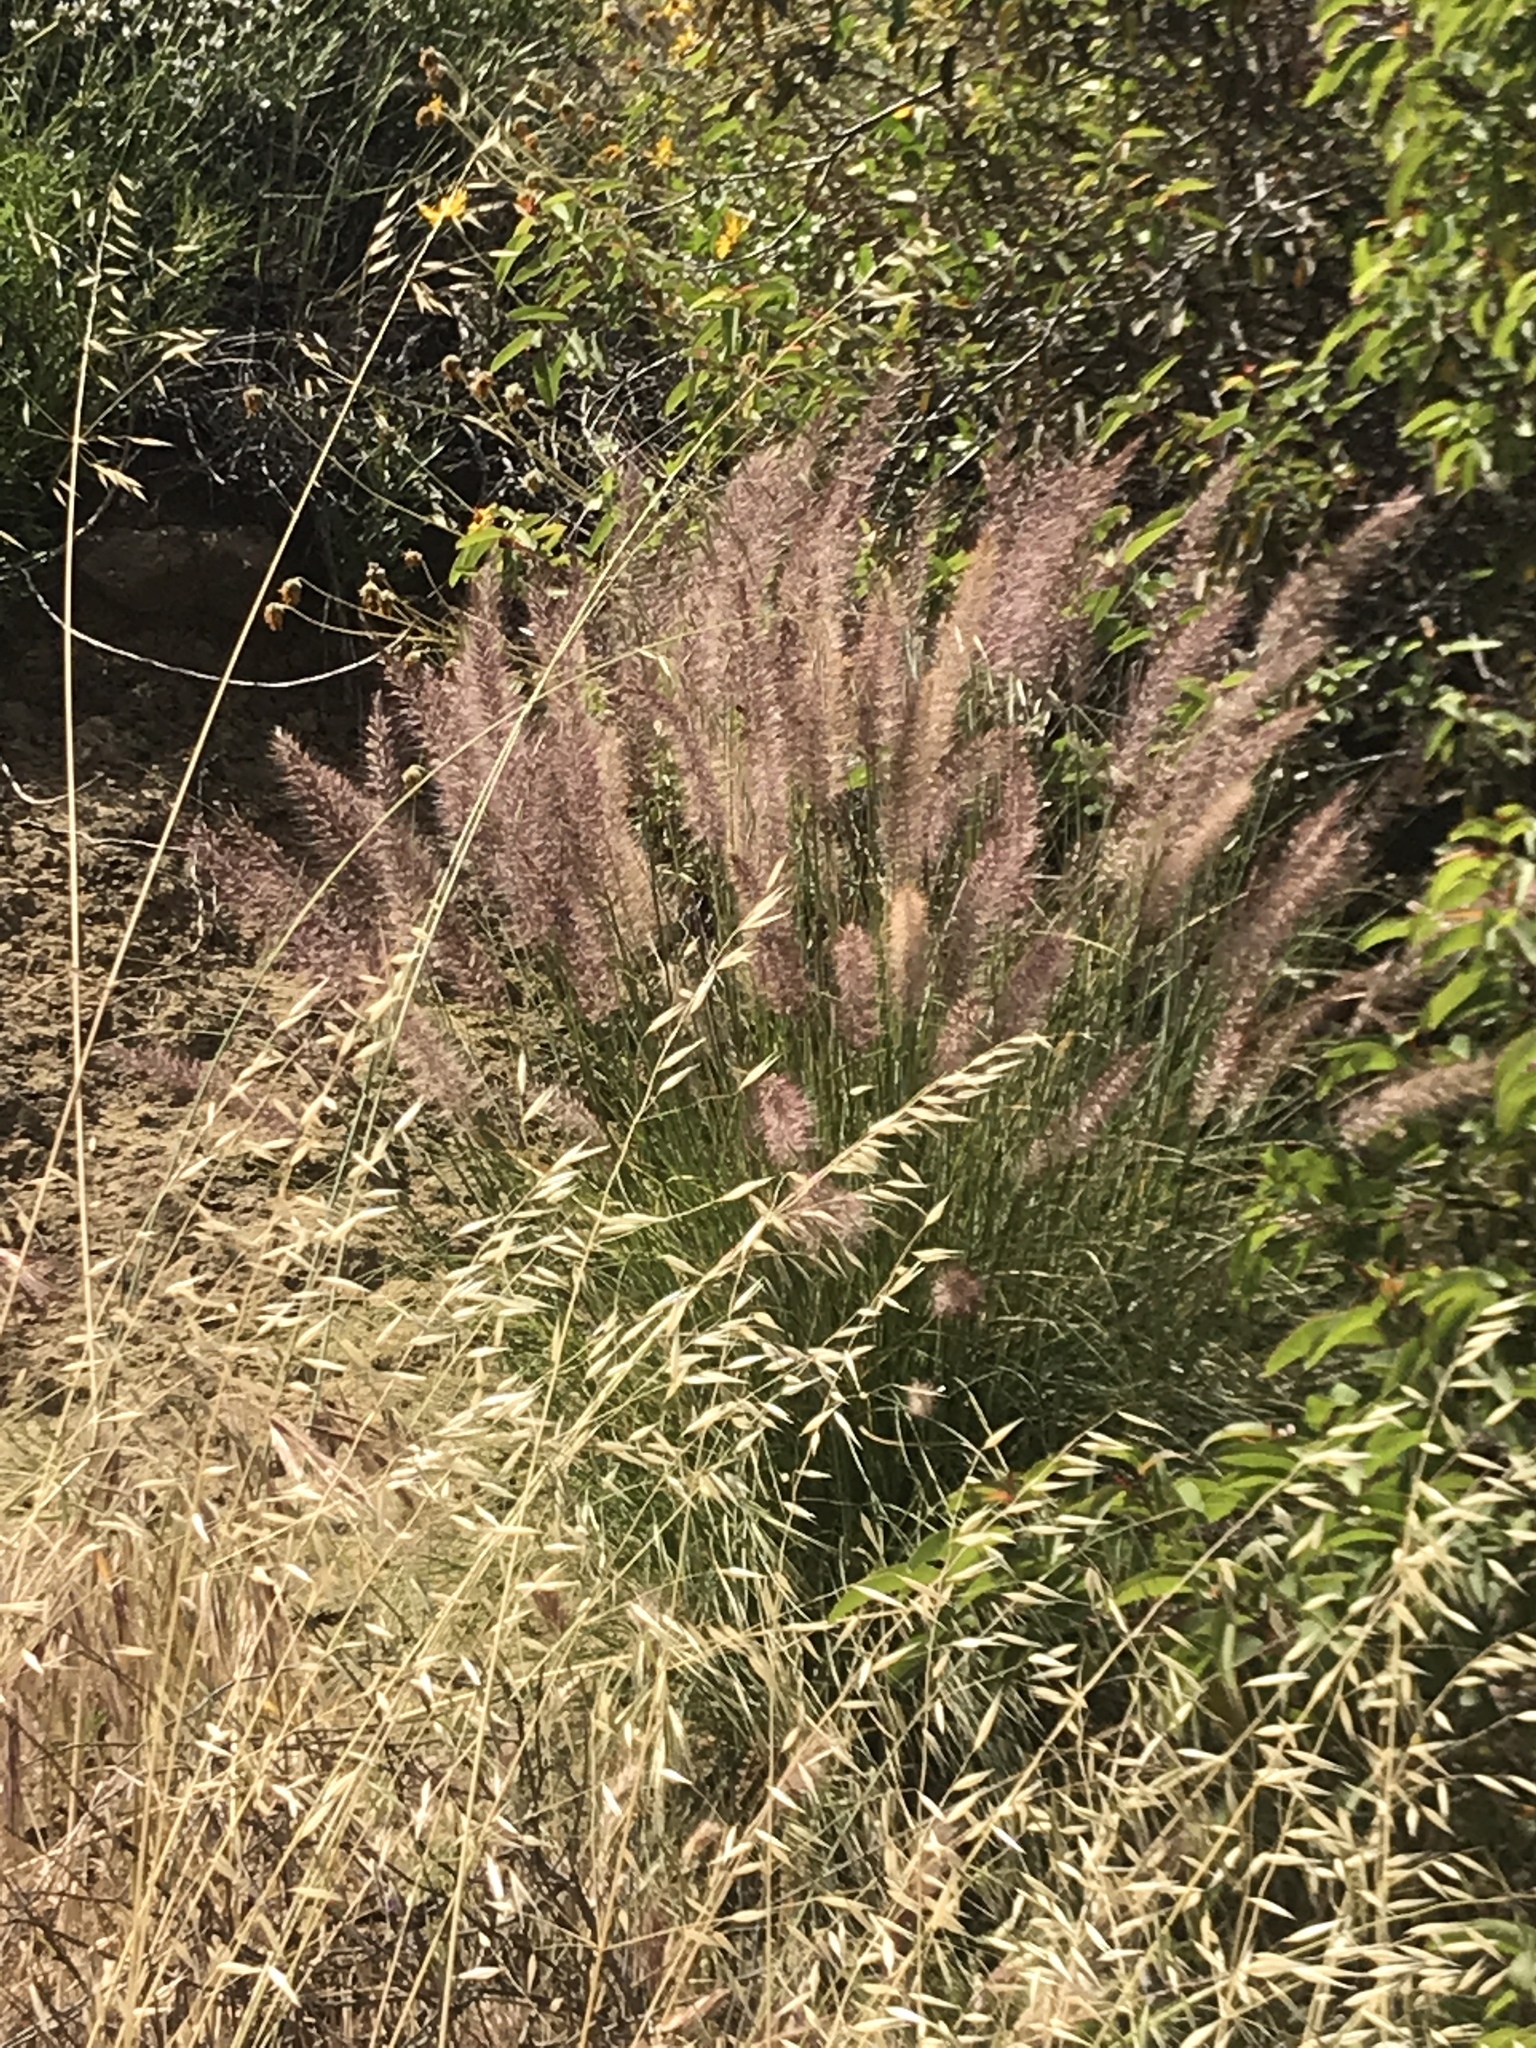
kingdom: Plantae
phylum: Tracheophyta
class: Liliopsida
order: Poales
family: Poaceae
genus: Cenchrus
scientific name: Cenchrus setaceus
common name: Crimson fountaingrass
